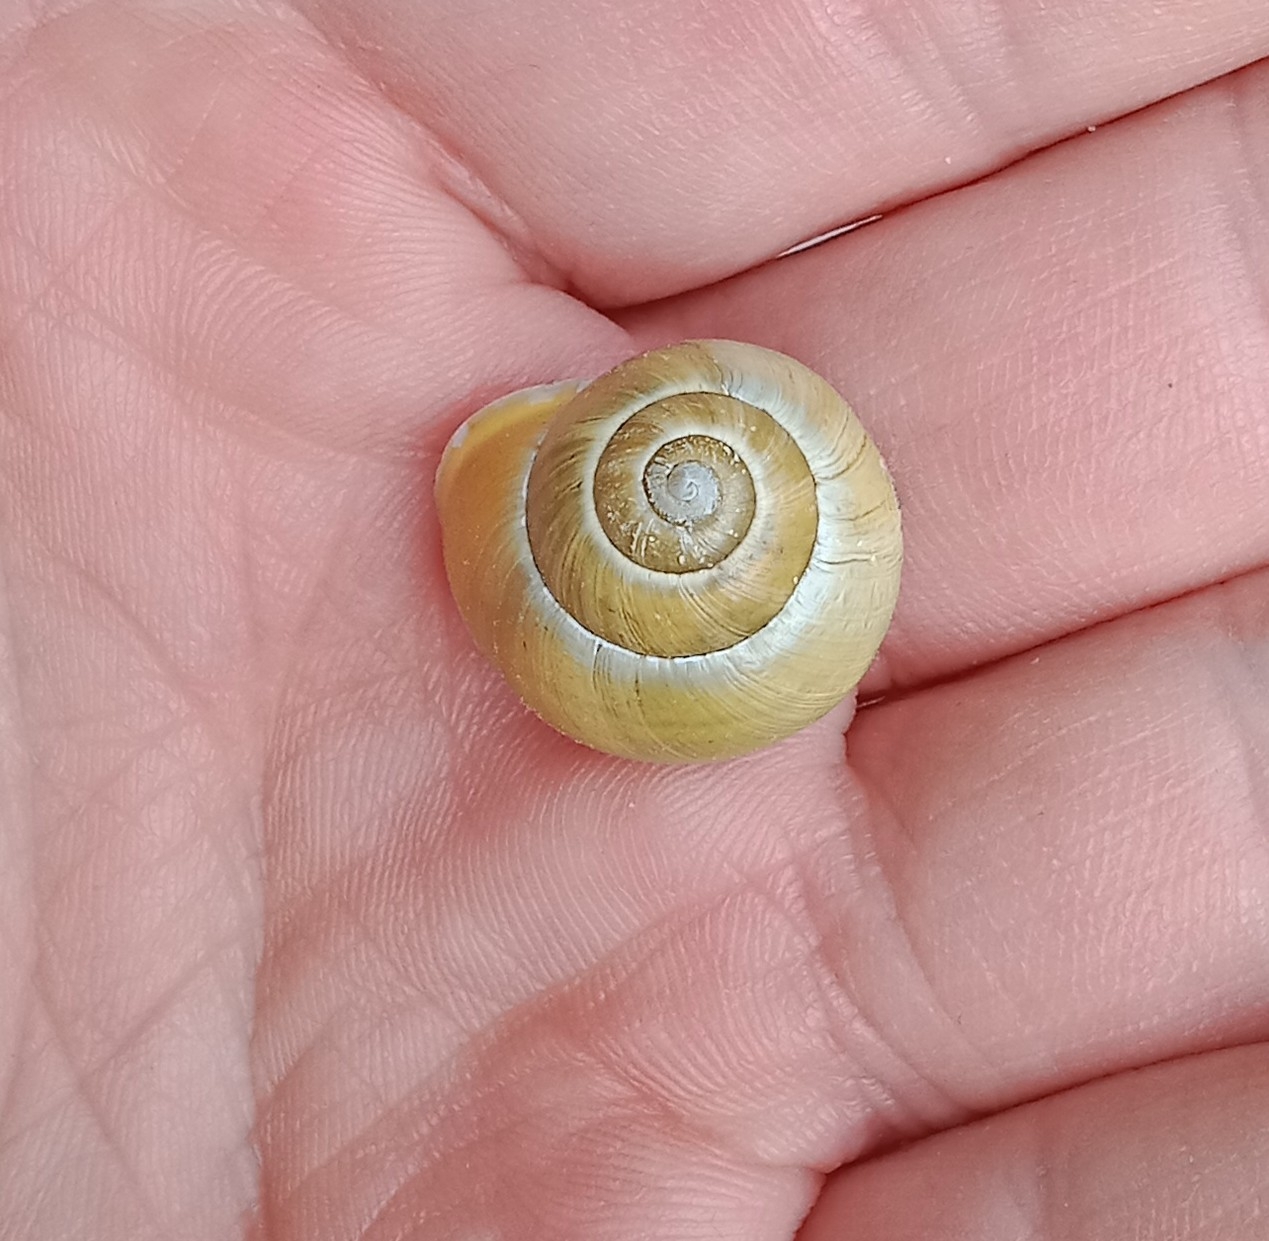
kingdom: Animalia
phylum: Mollusca
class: Gastropoda
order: Stylommatophora
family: Helicidae
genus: Cepaea
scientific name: Cepaea hortensis
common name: White-lip gardensnail
